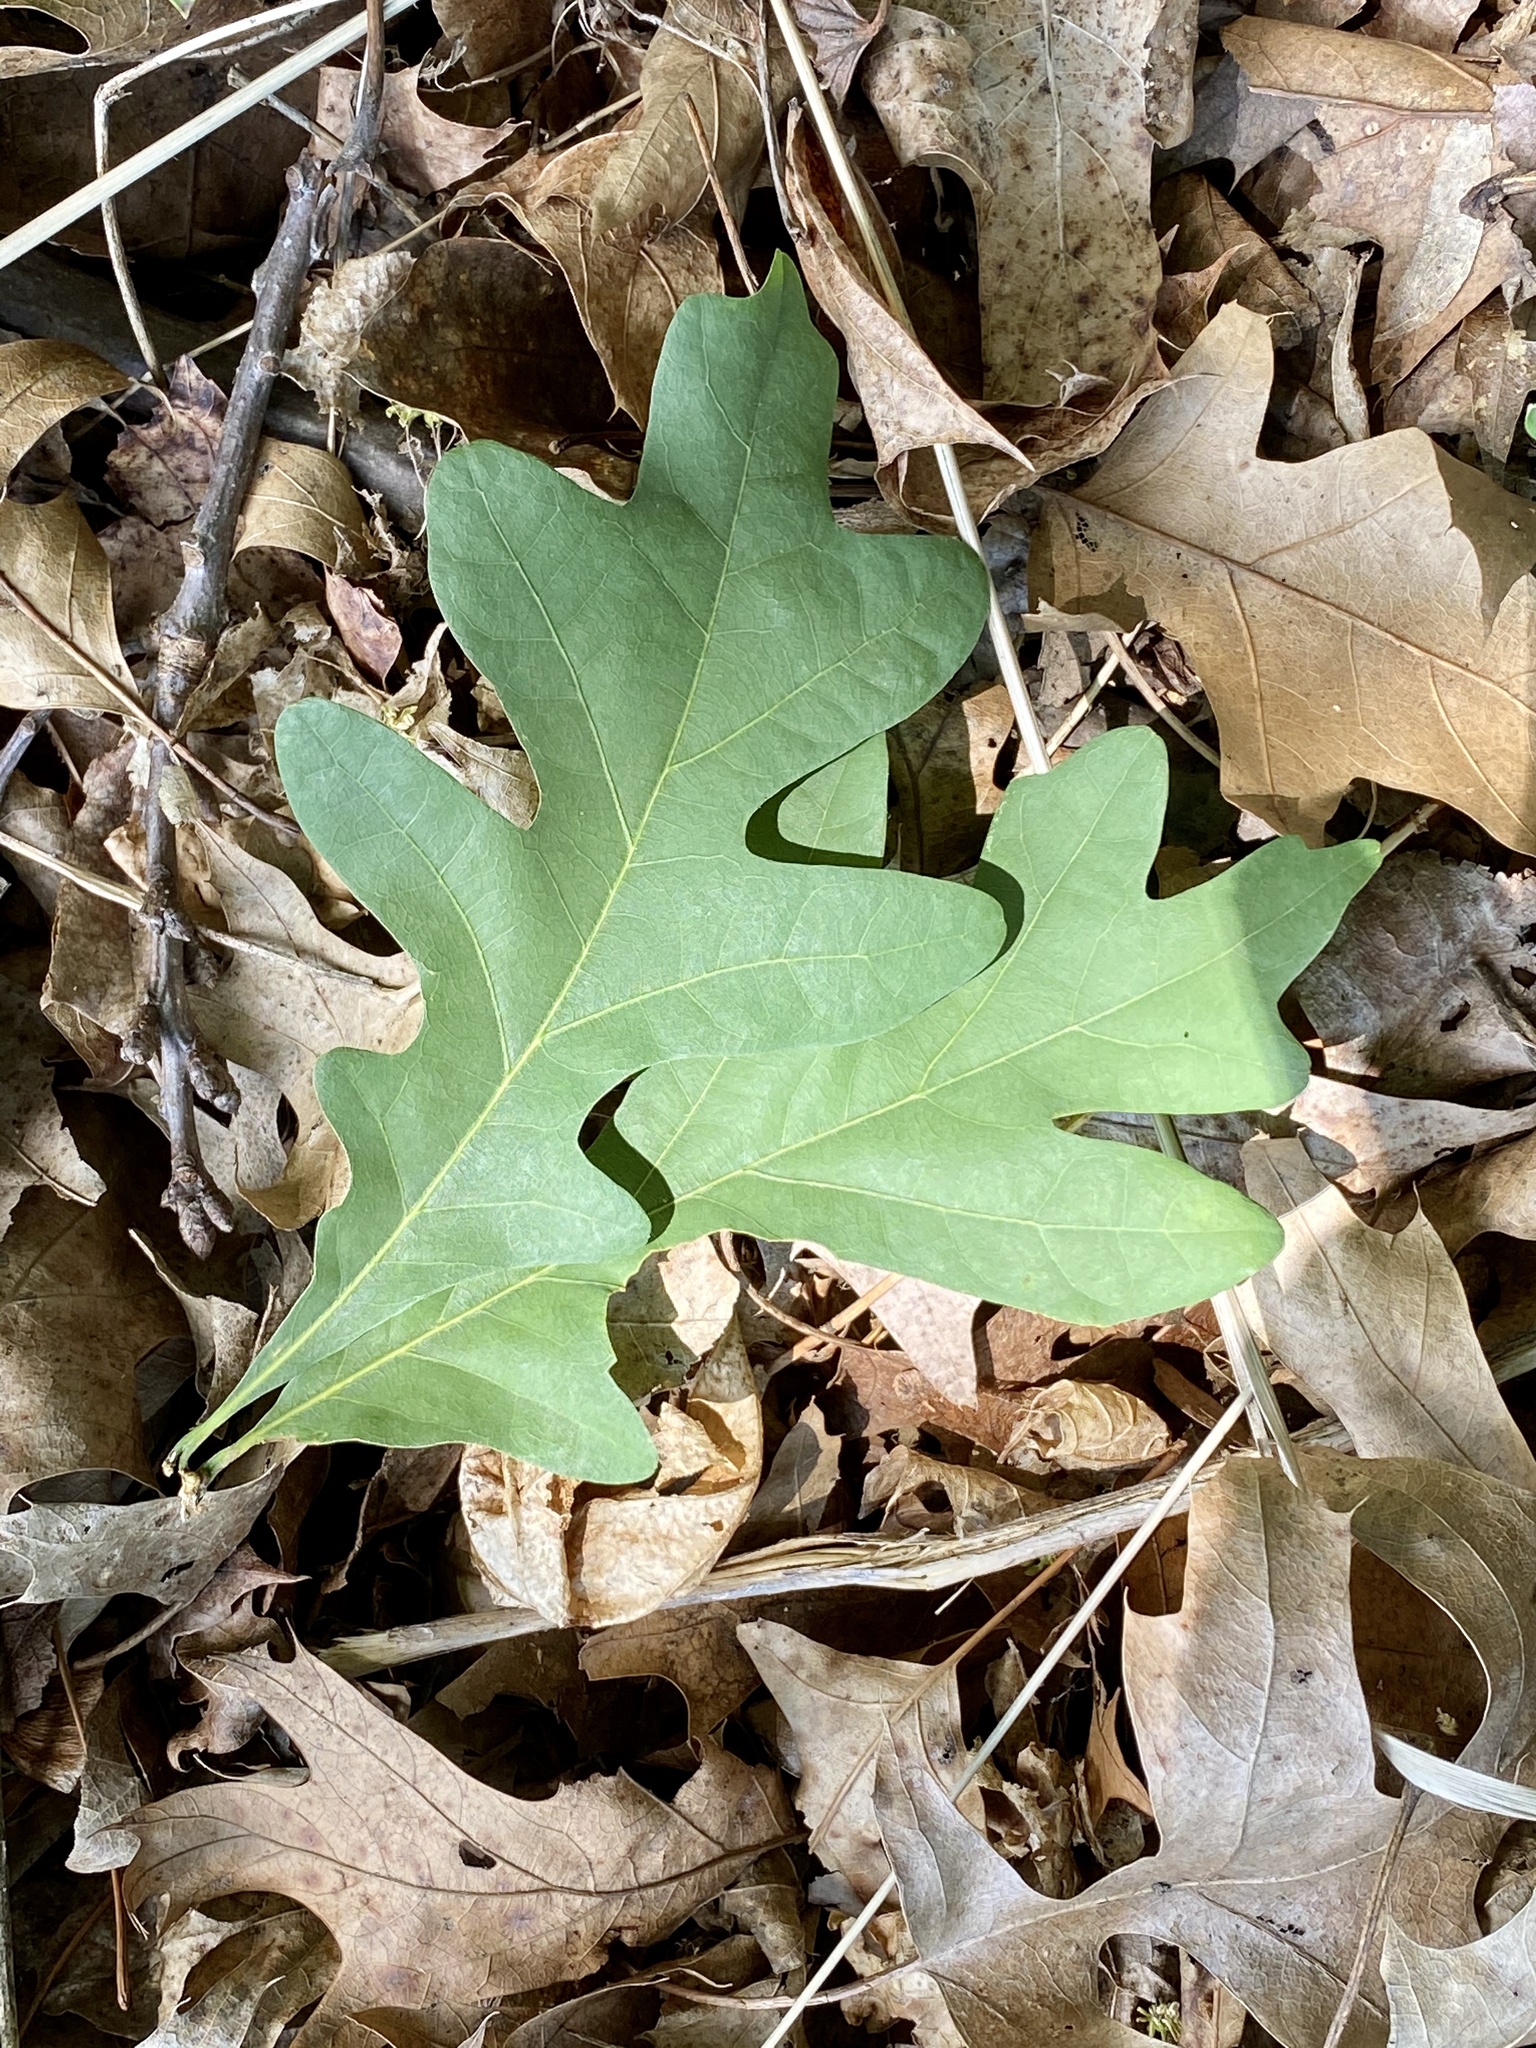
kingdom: Plantae
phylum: Tracheophyta
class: Magnoliopsida
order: Fagales
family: Fagaceae
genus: Quercus
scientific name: Quercus alba
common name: White oak
